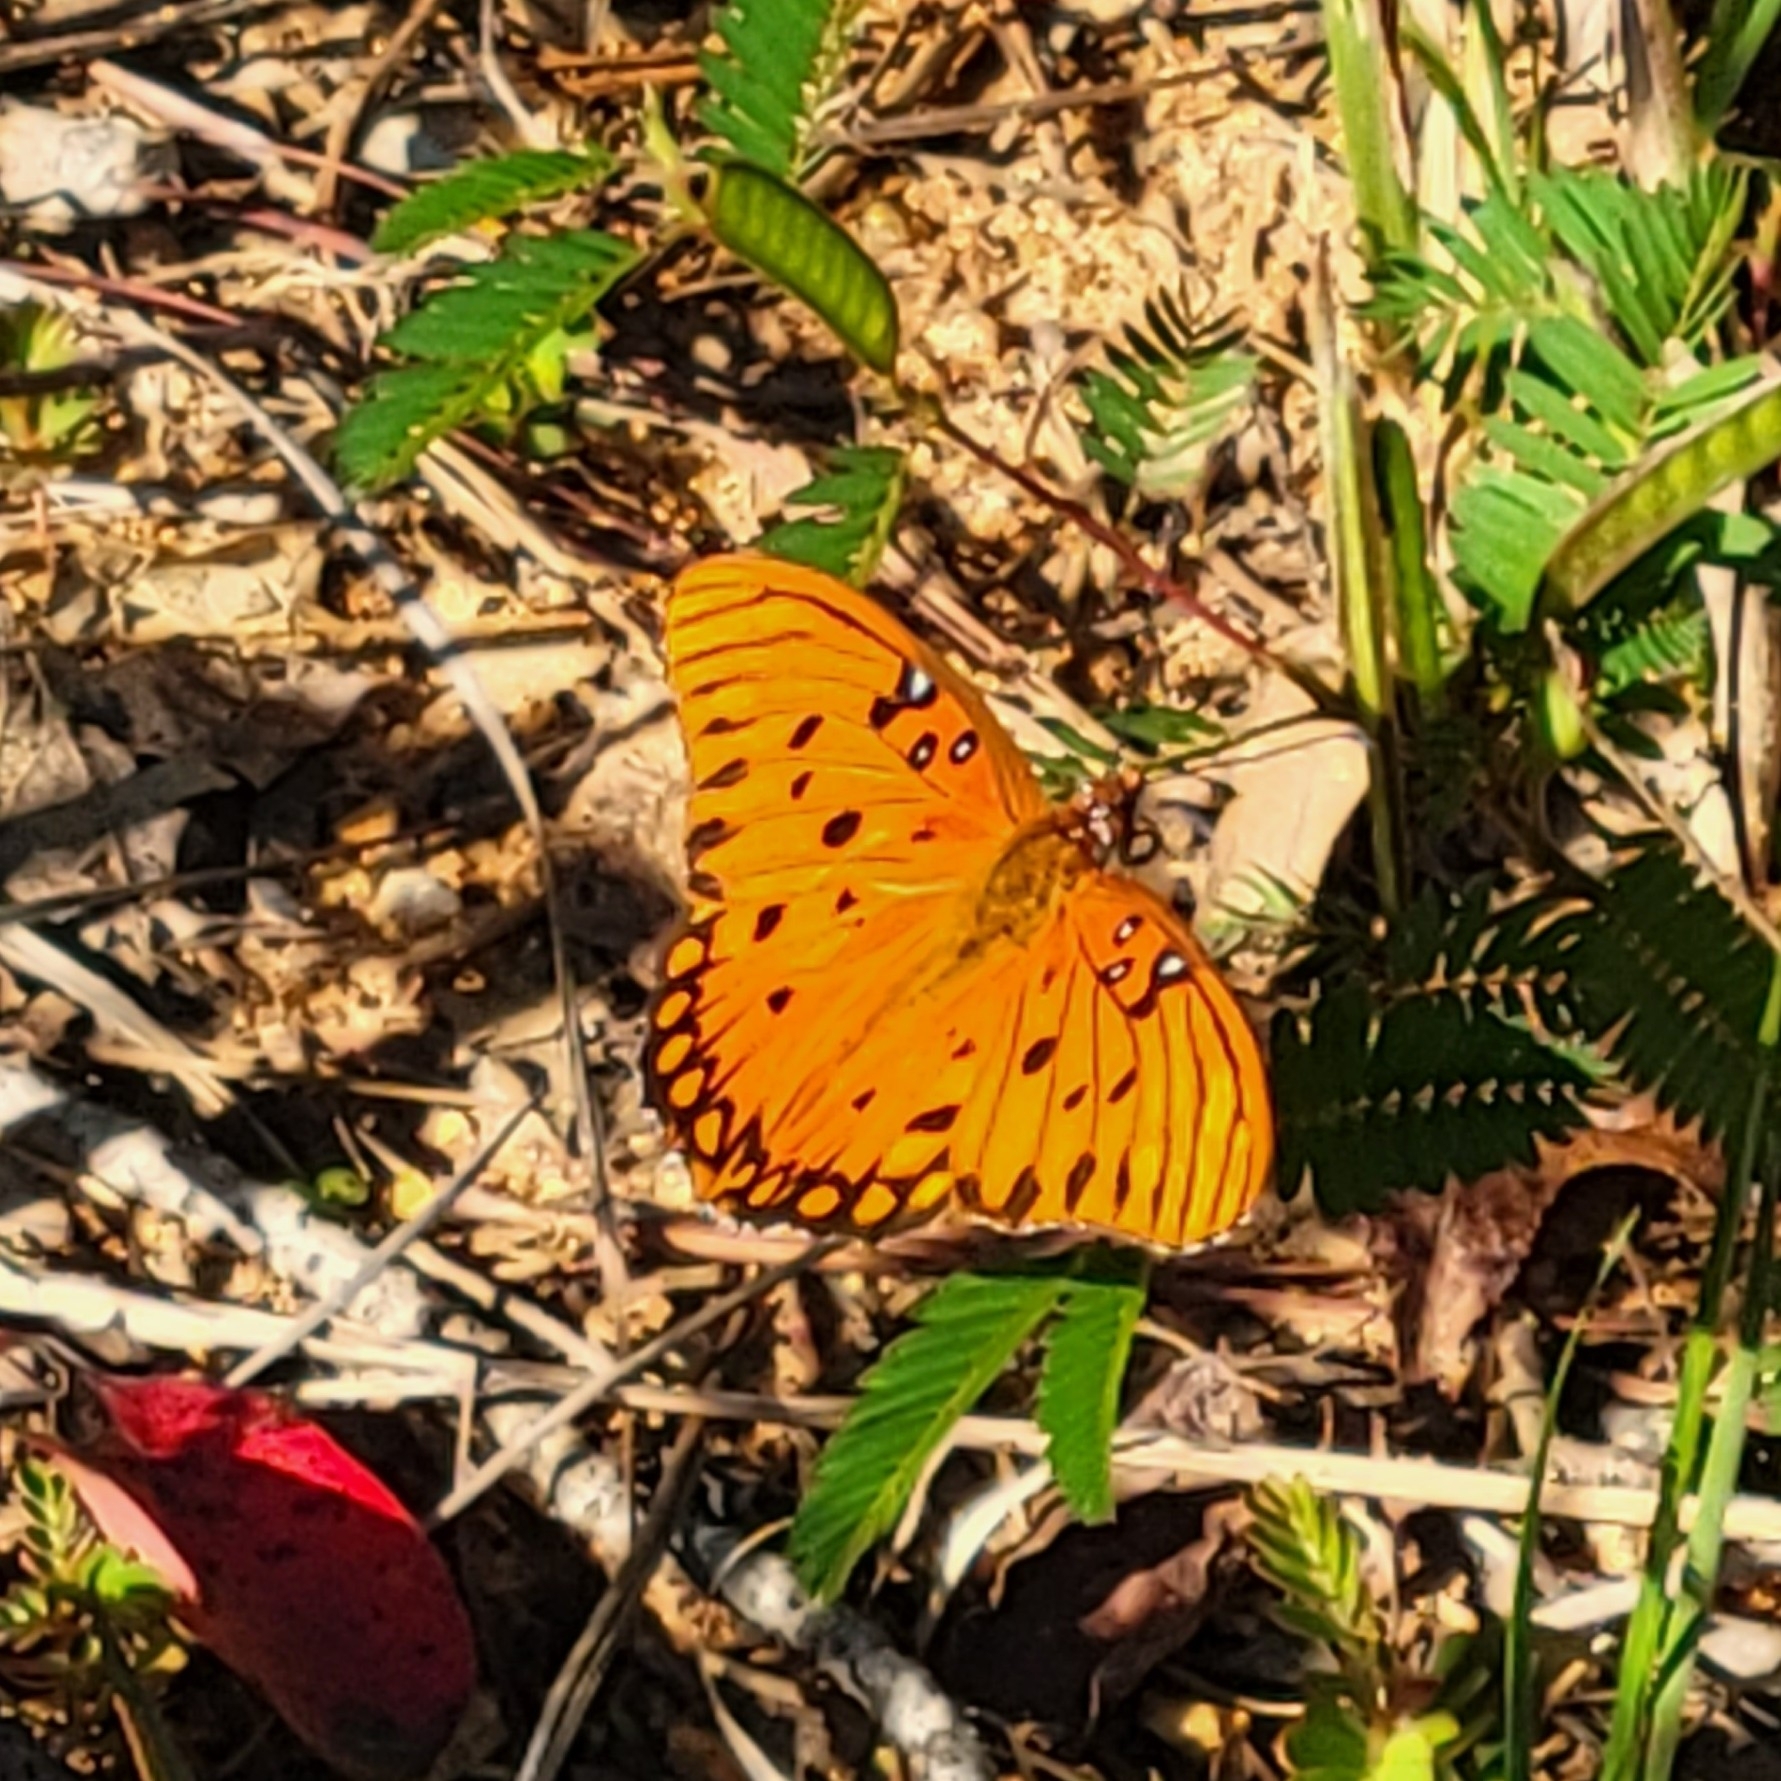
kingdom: Animalia
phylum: Arthropoda
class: Insecta
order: Lepidoptera
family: Nymphalidae
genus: Dione
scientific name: Dione vanillae
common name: Gulf fritillary
